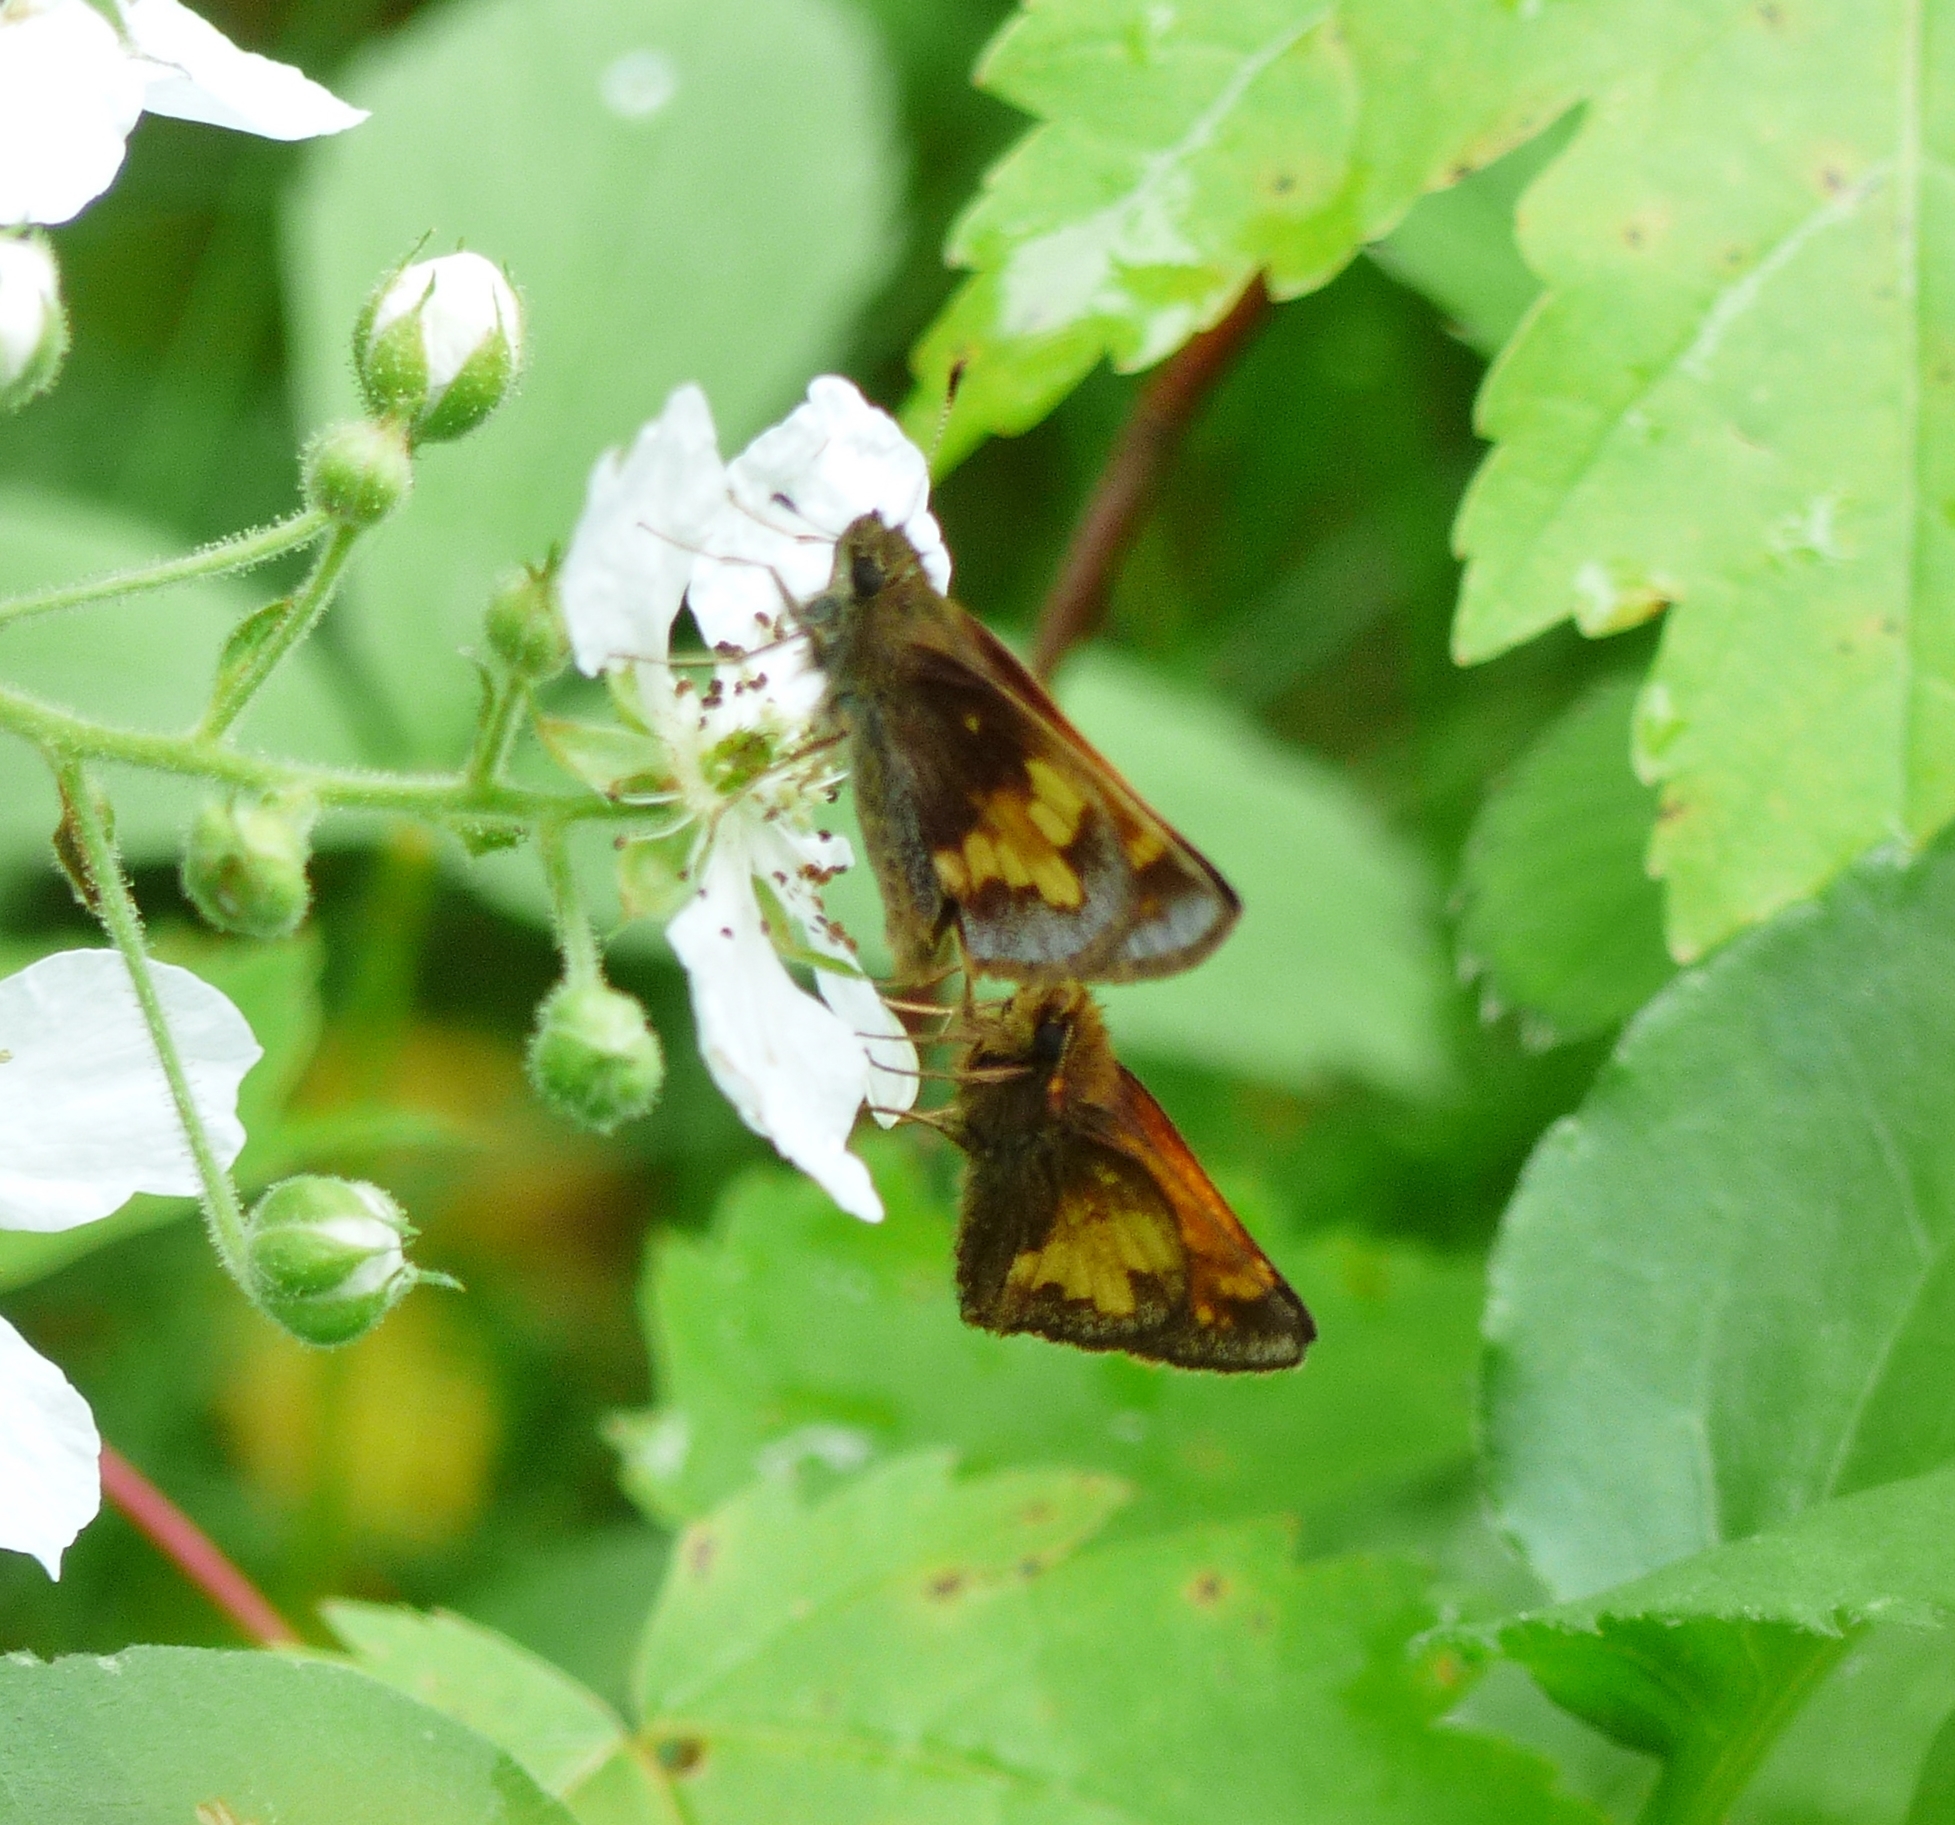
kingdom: Animalia
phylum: Arthropoda
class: Insecta
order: Lepidoptera
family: Hesperiidae
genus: Lon
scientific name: Lon hobomok
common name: Hobomok skipper
